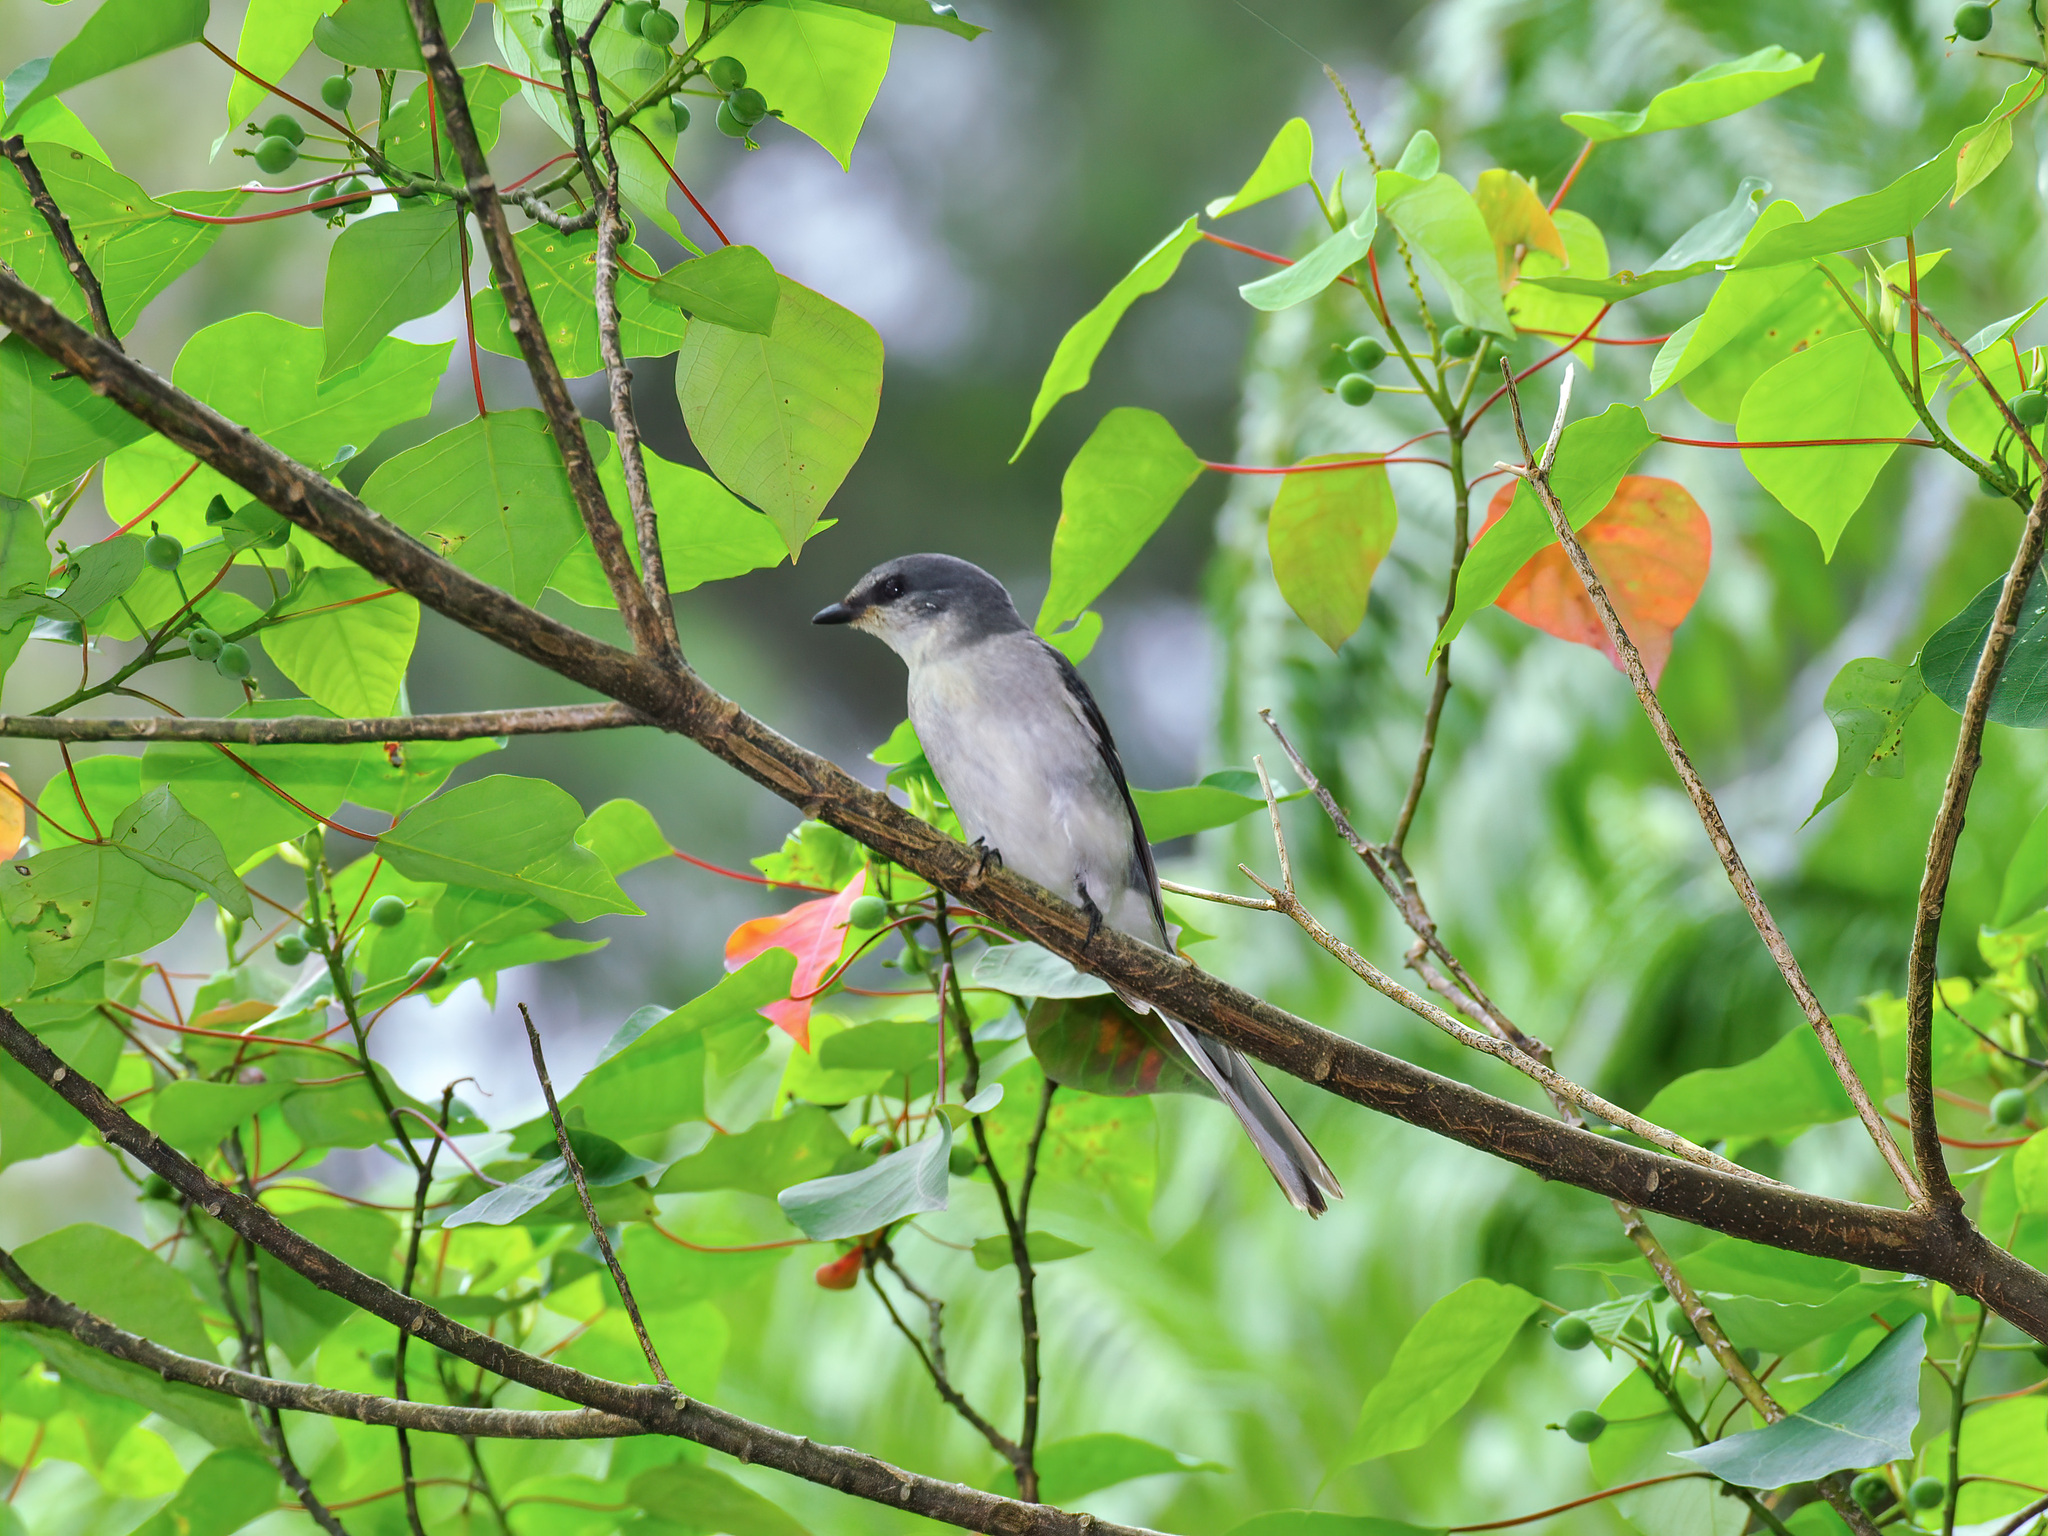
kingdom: Animalia
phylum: Chordata
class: Aves
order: Passeriformes
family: Campephagidae
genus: Pericrocotus
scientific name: Pericrocotus divaricatus
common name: Ashy minivet
